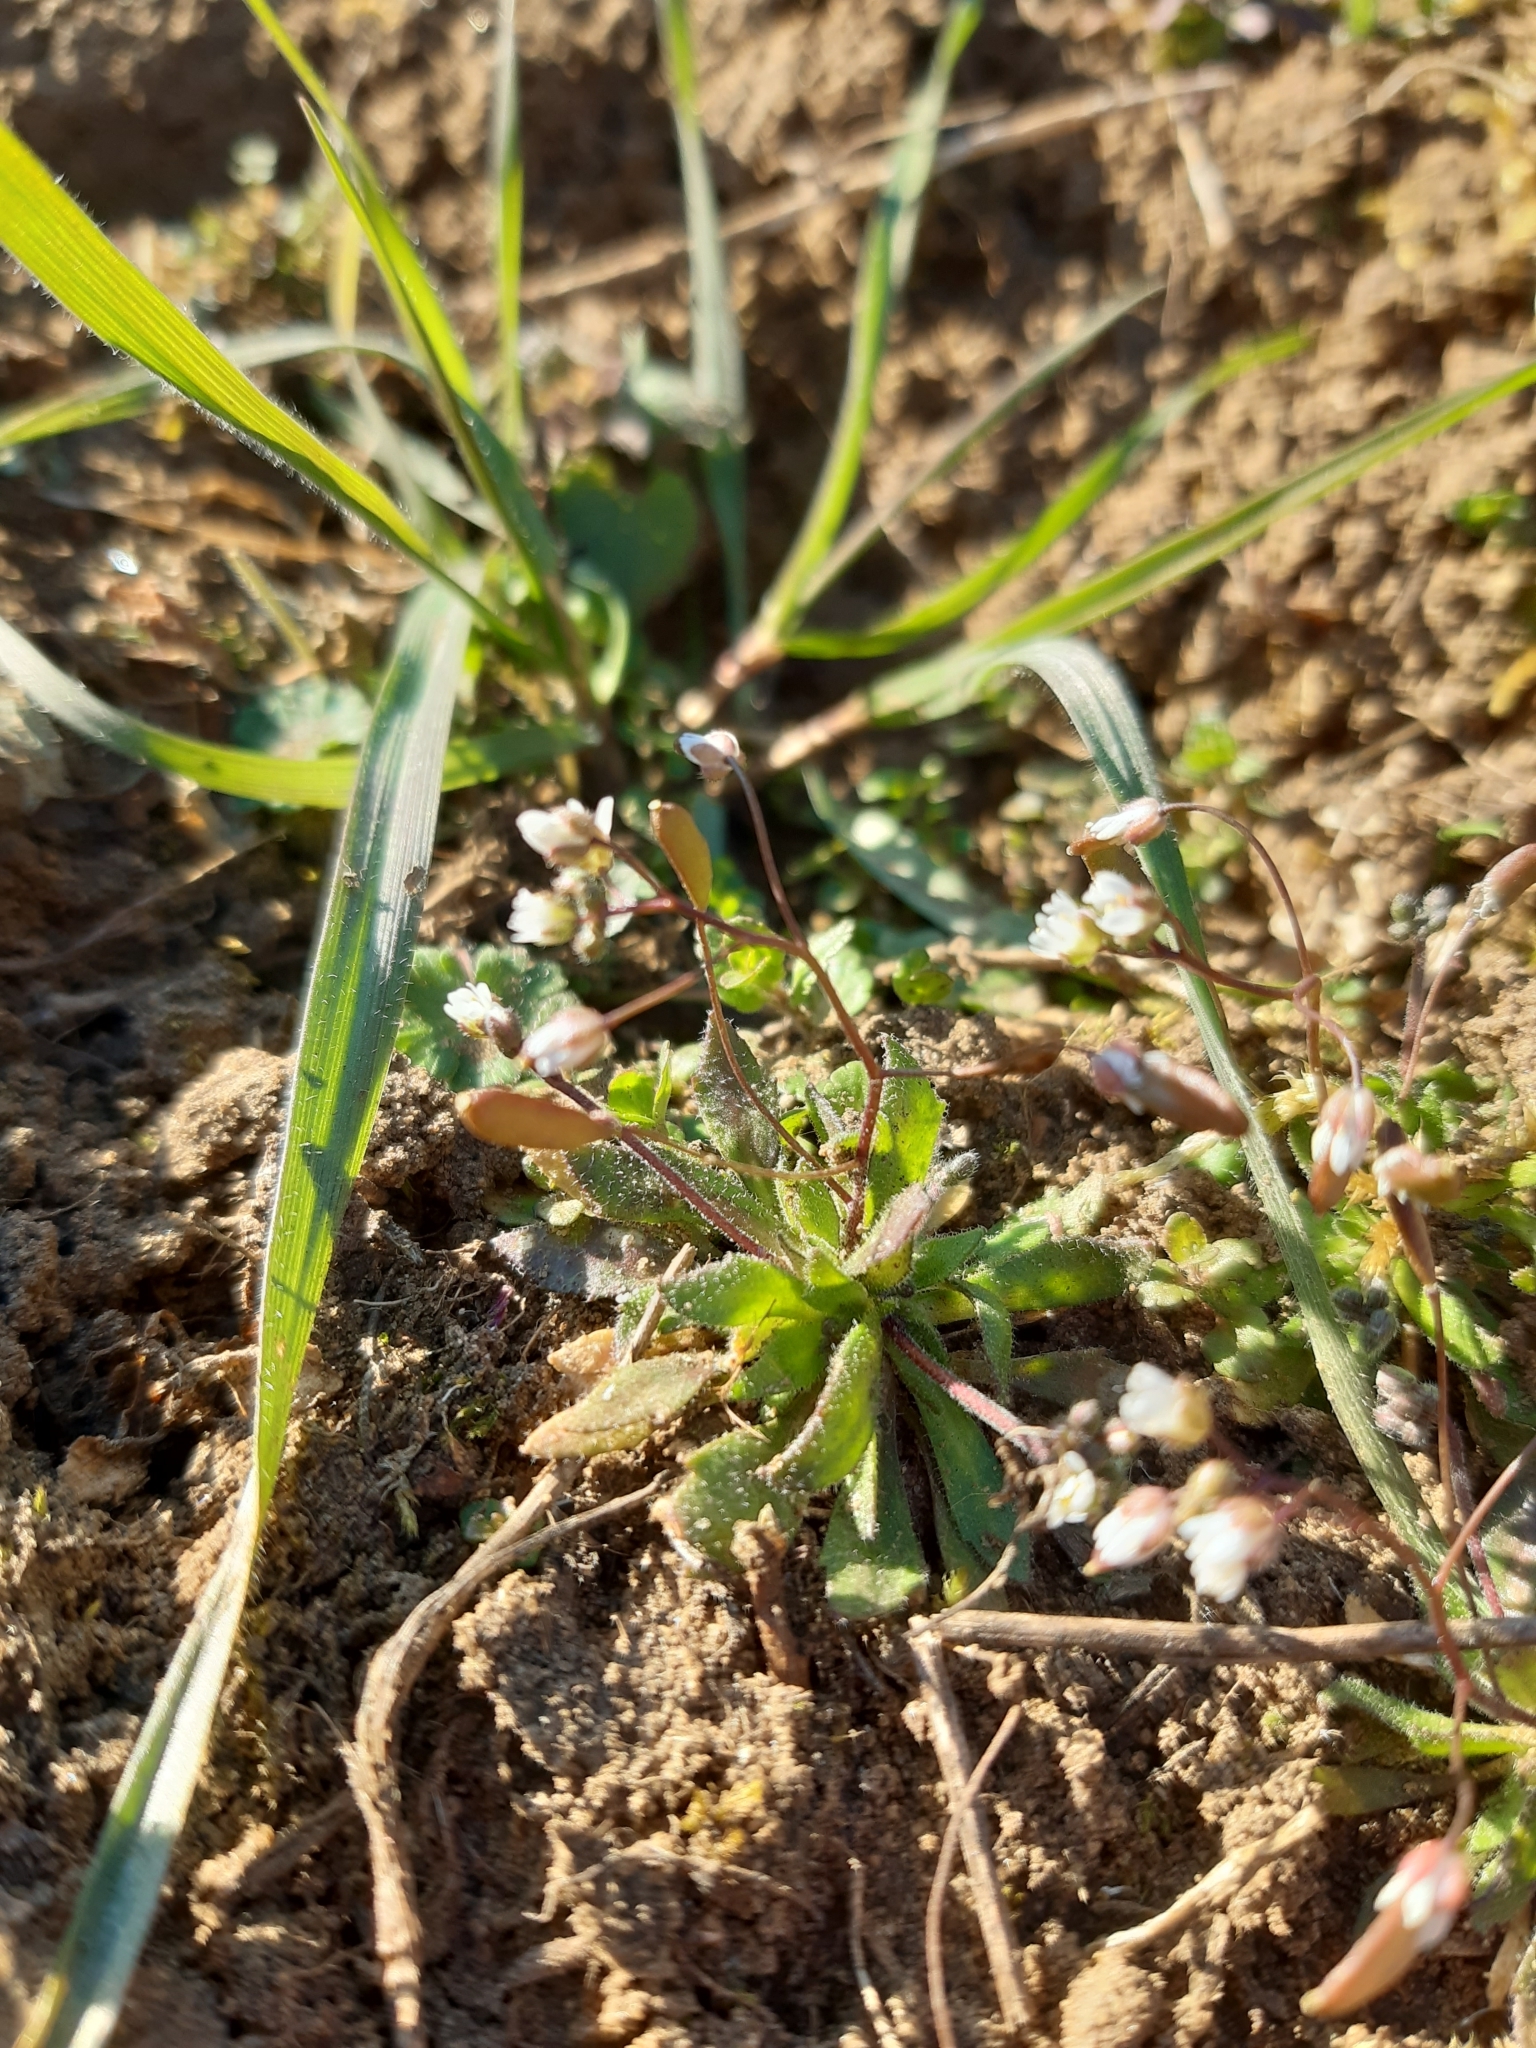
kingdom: Plantae
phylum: Tracheophyta
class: Magnoliopsida
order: Brassicales
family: Brassicaceae
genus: Draba
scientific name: Draba verna
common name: Spring draba
